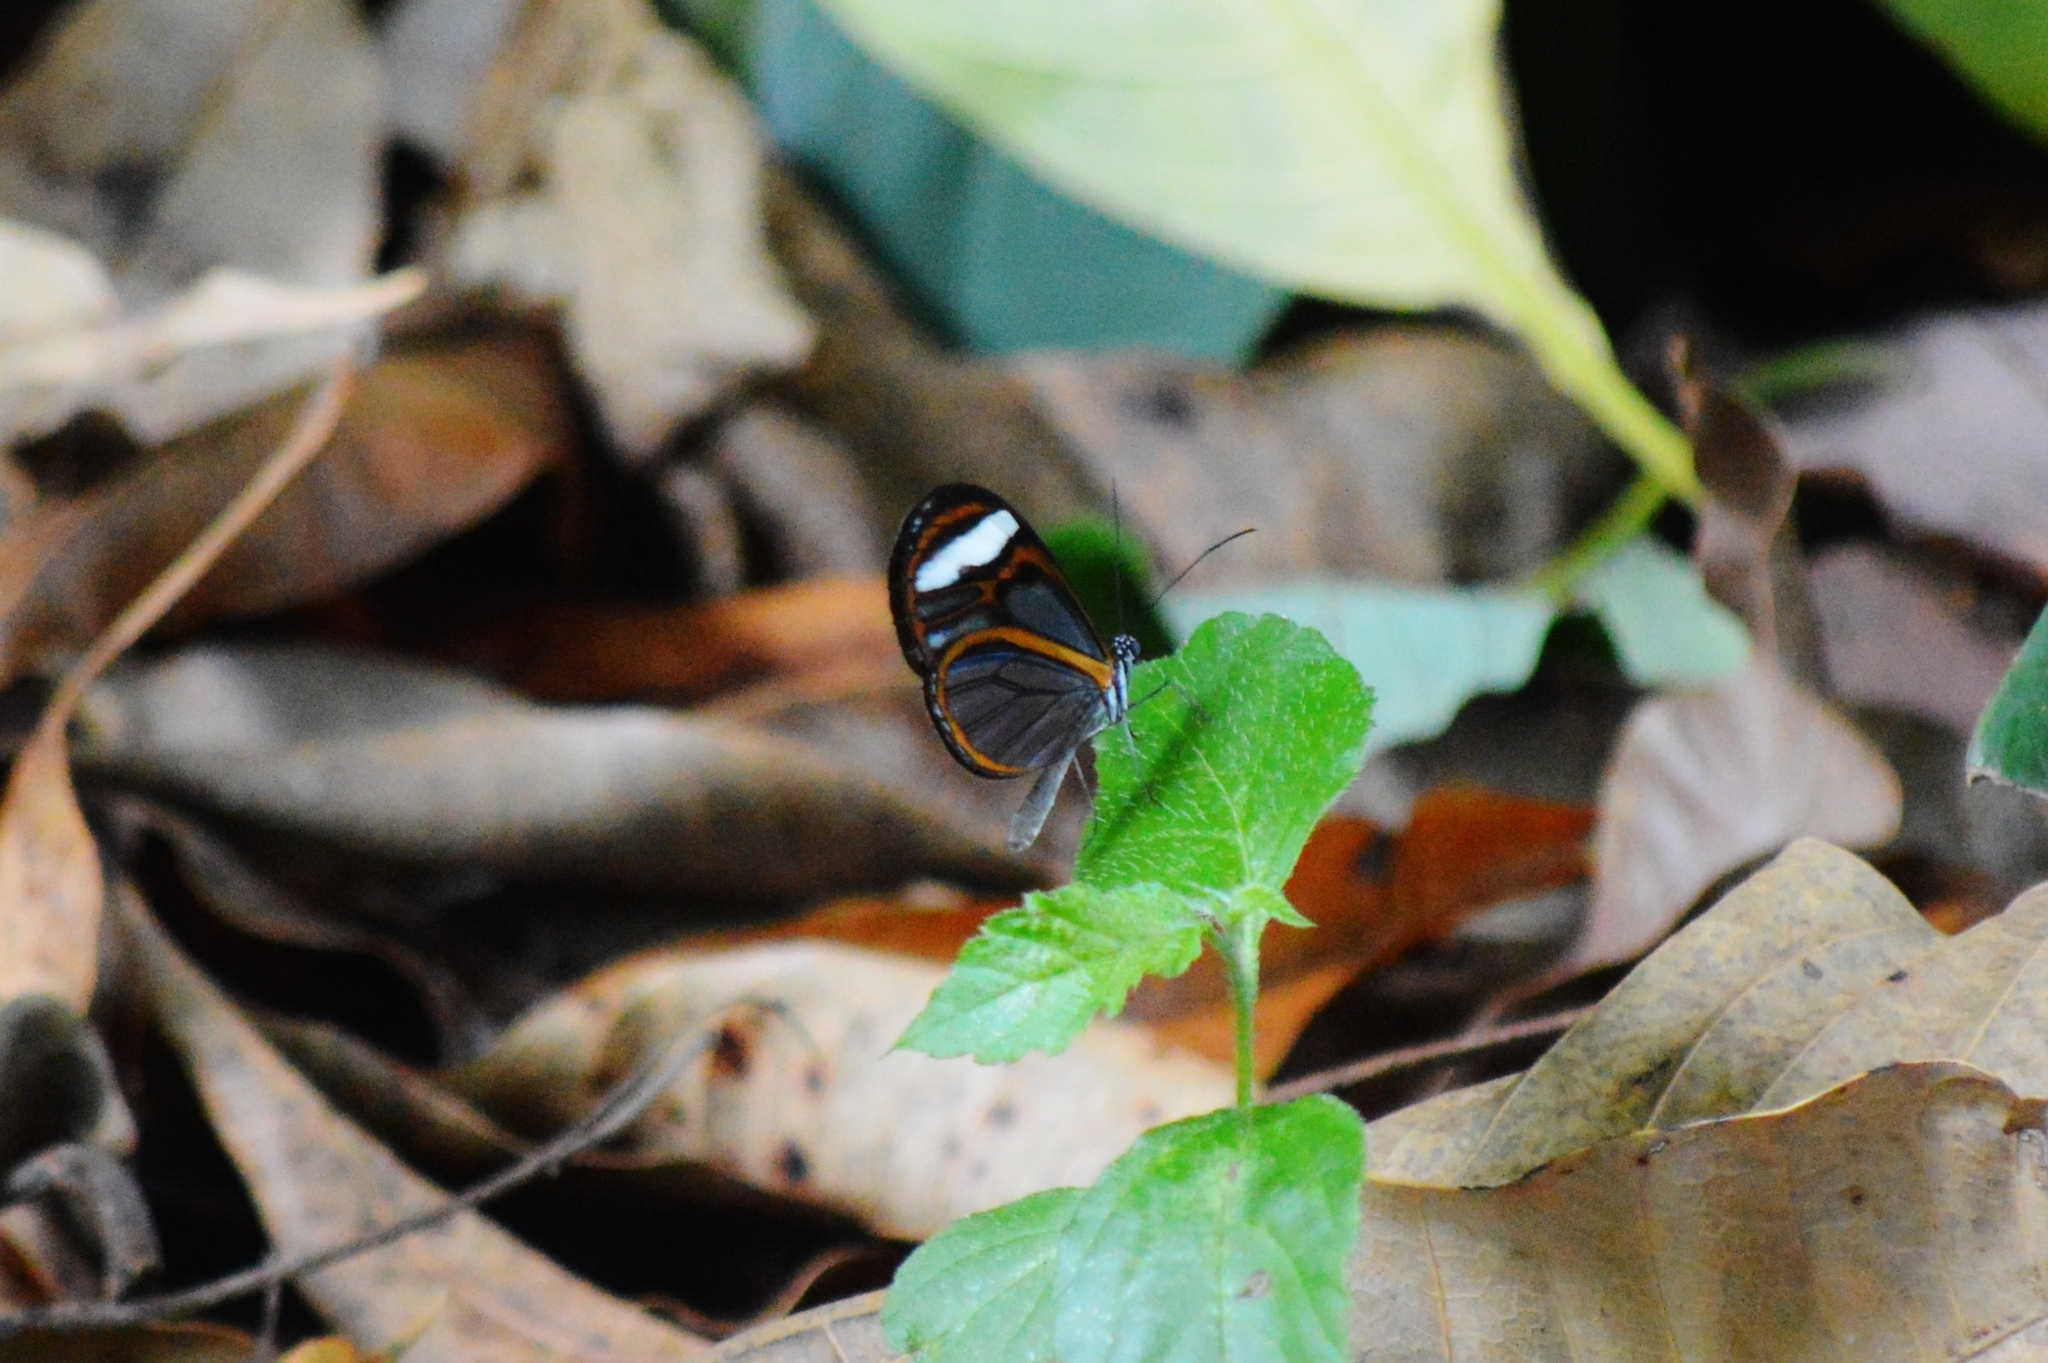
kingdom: Animalia
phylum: Arthropoda
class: Insecta
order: Lepidoptera
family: Nymphalidae
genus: Hypoleria
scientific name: Hypoleria sarepta
